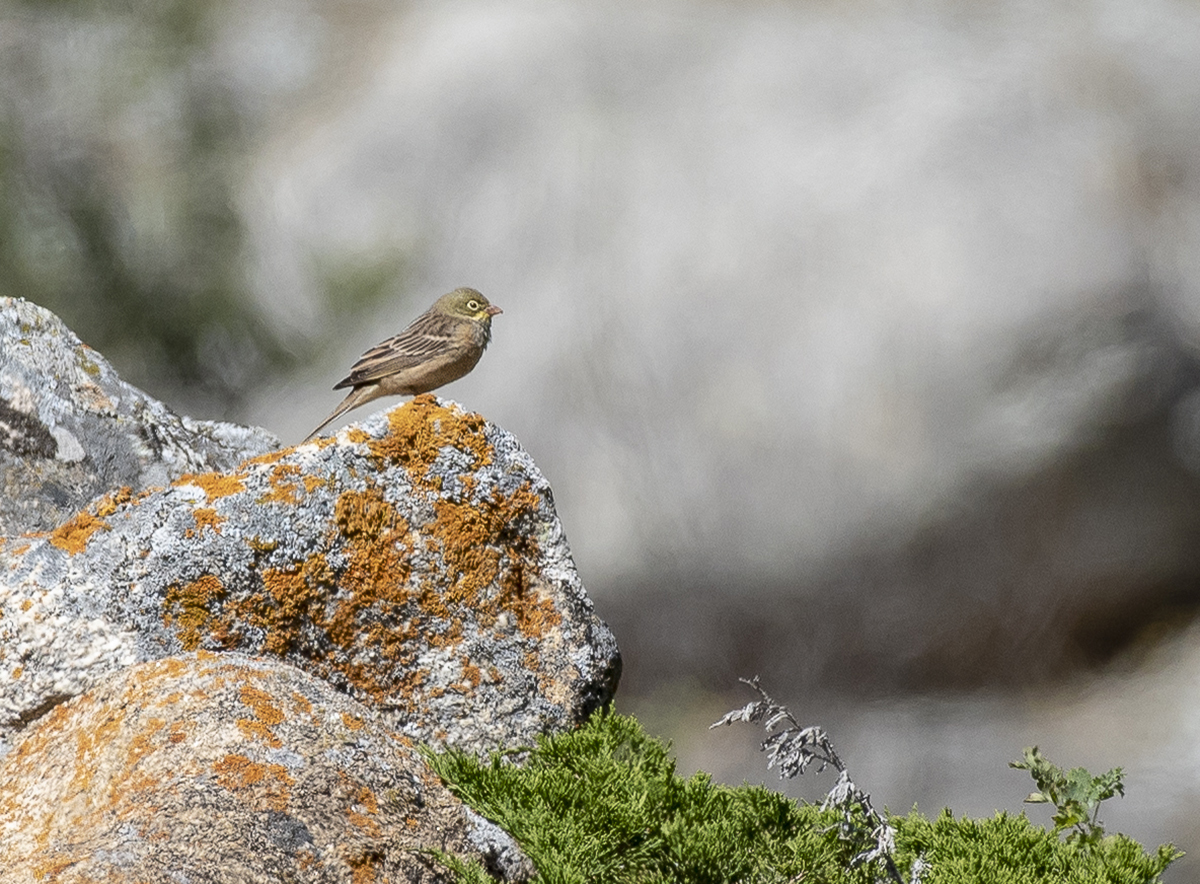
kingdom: Animalia
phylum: Chordata
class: Aves
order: Passeriformes
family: Emberizidae
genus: Emberiza
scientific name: Emberiza hortulana
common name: Ortolan bunting
